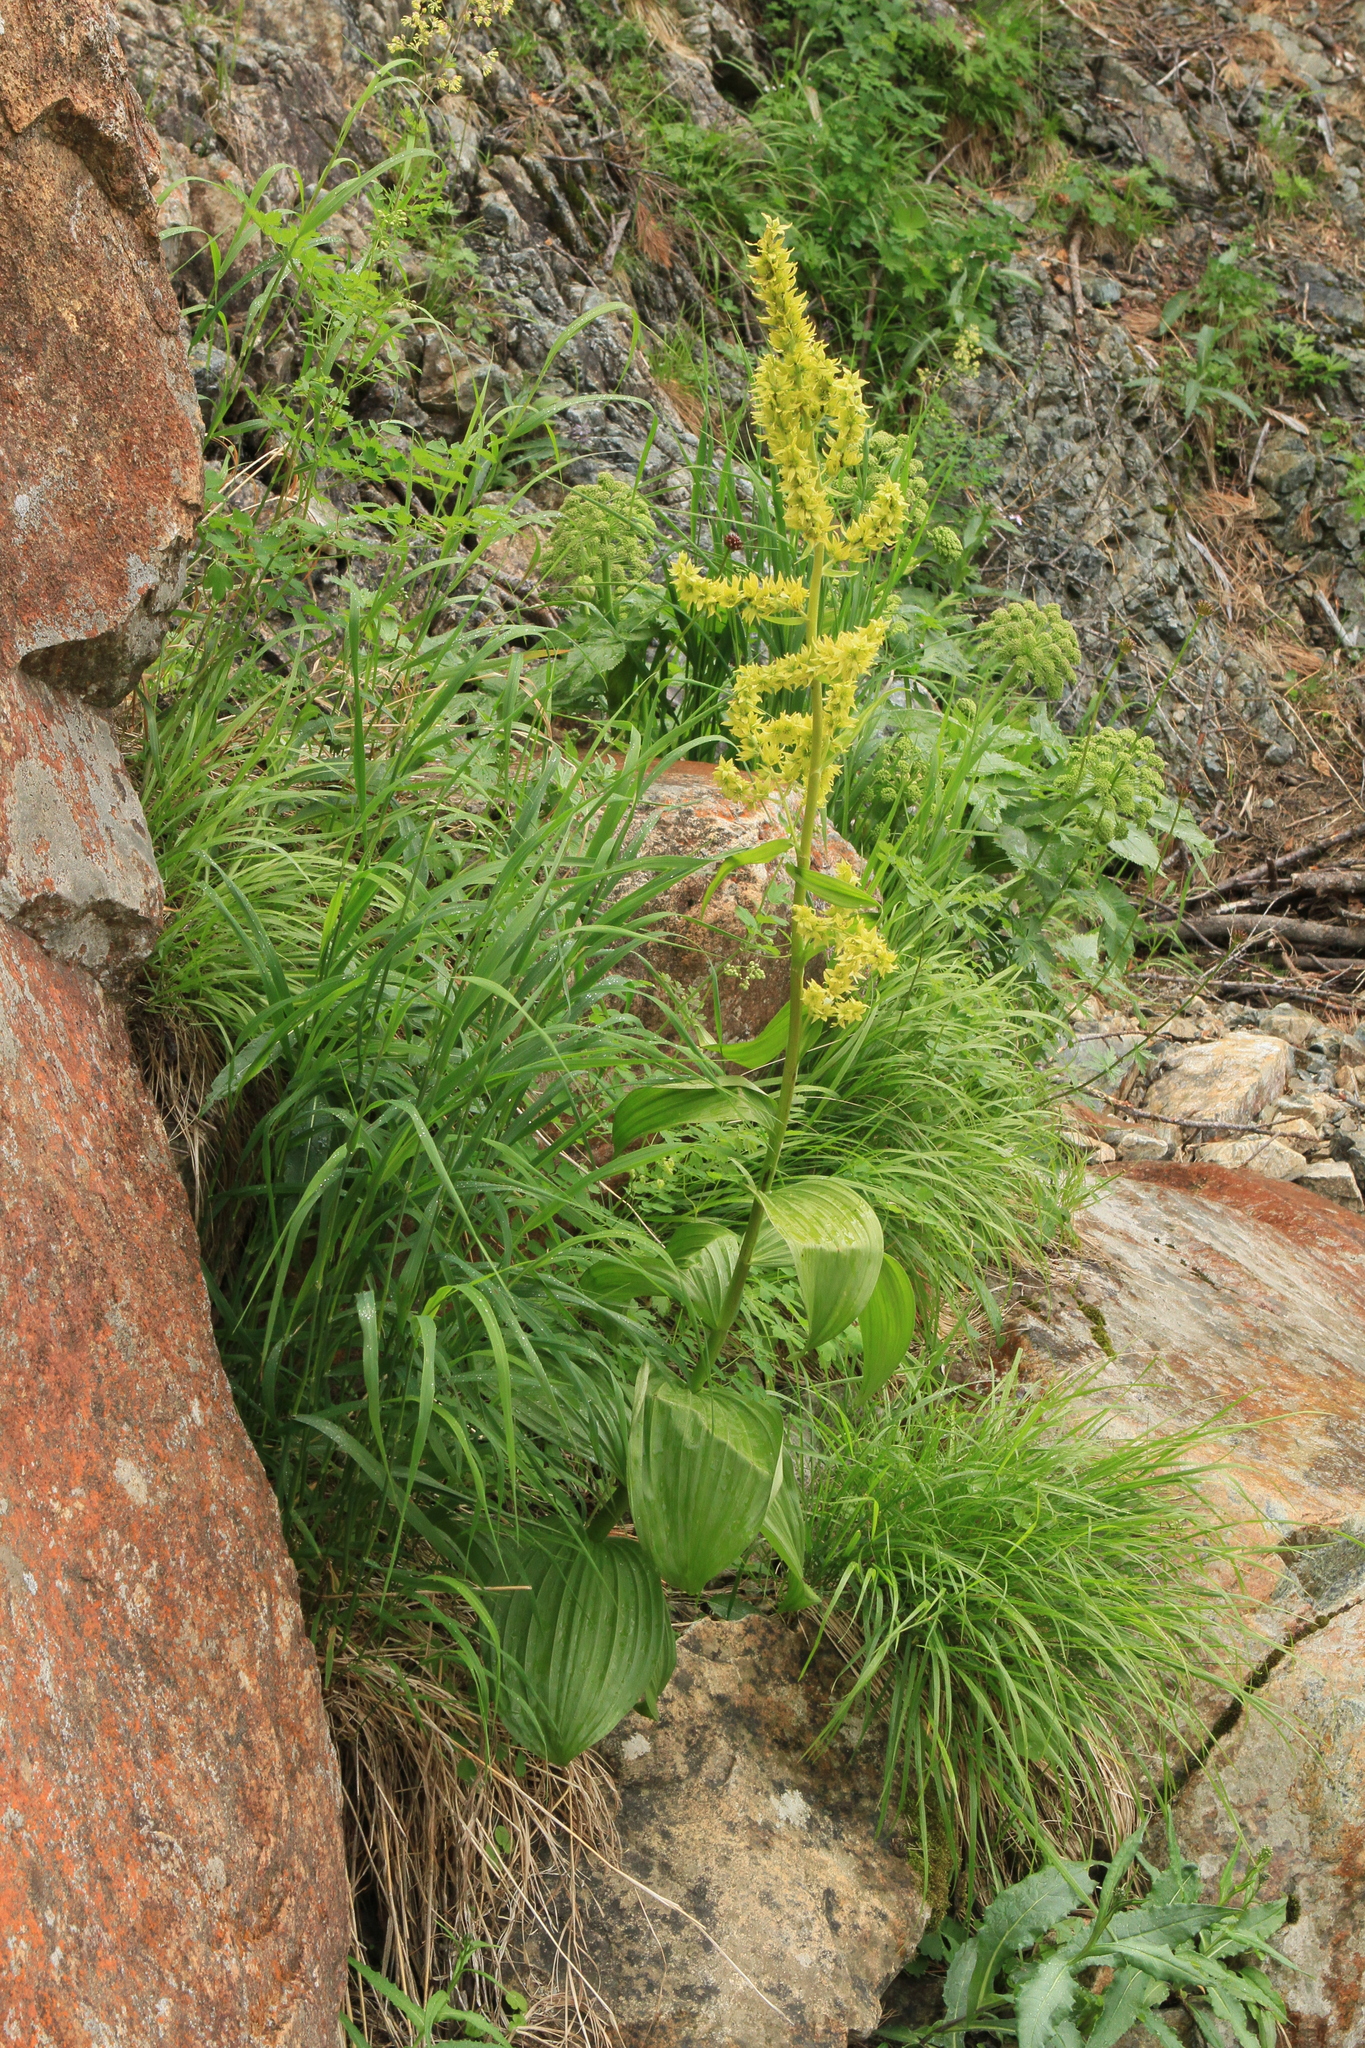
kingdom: Plantae
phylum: Tracheophyta
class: Liliopsida
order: Liliales
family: Melanthiaceae
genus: Veratrum
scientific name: Veratrum lobelianum
